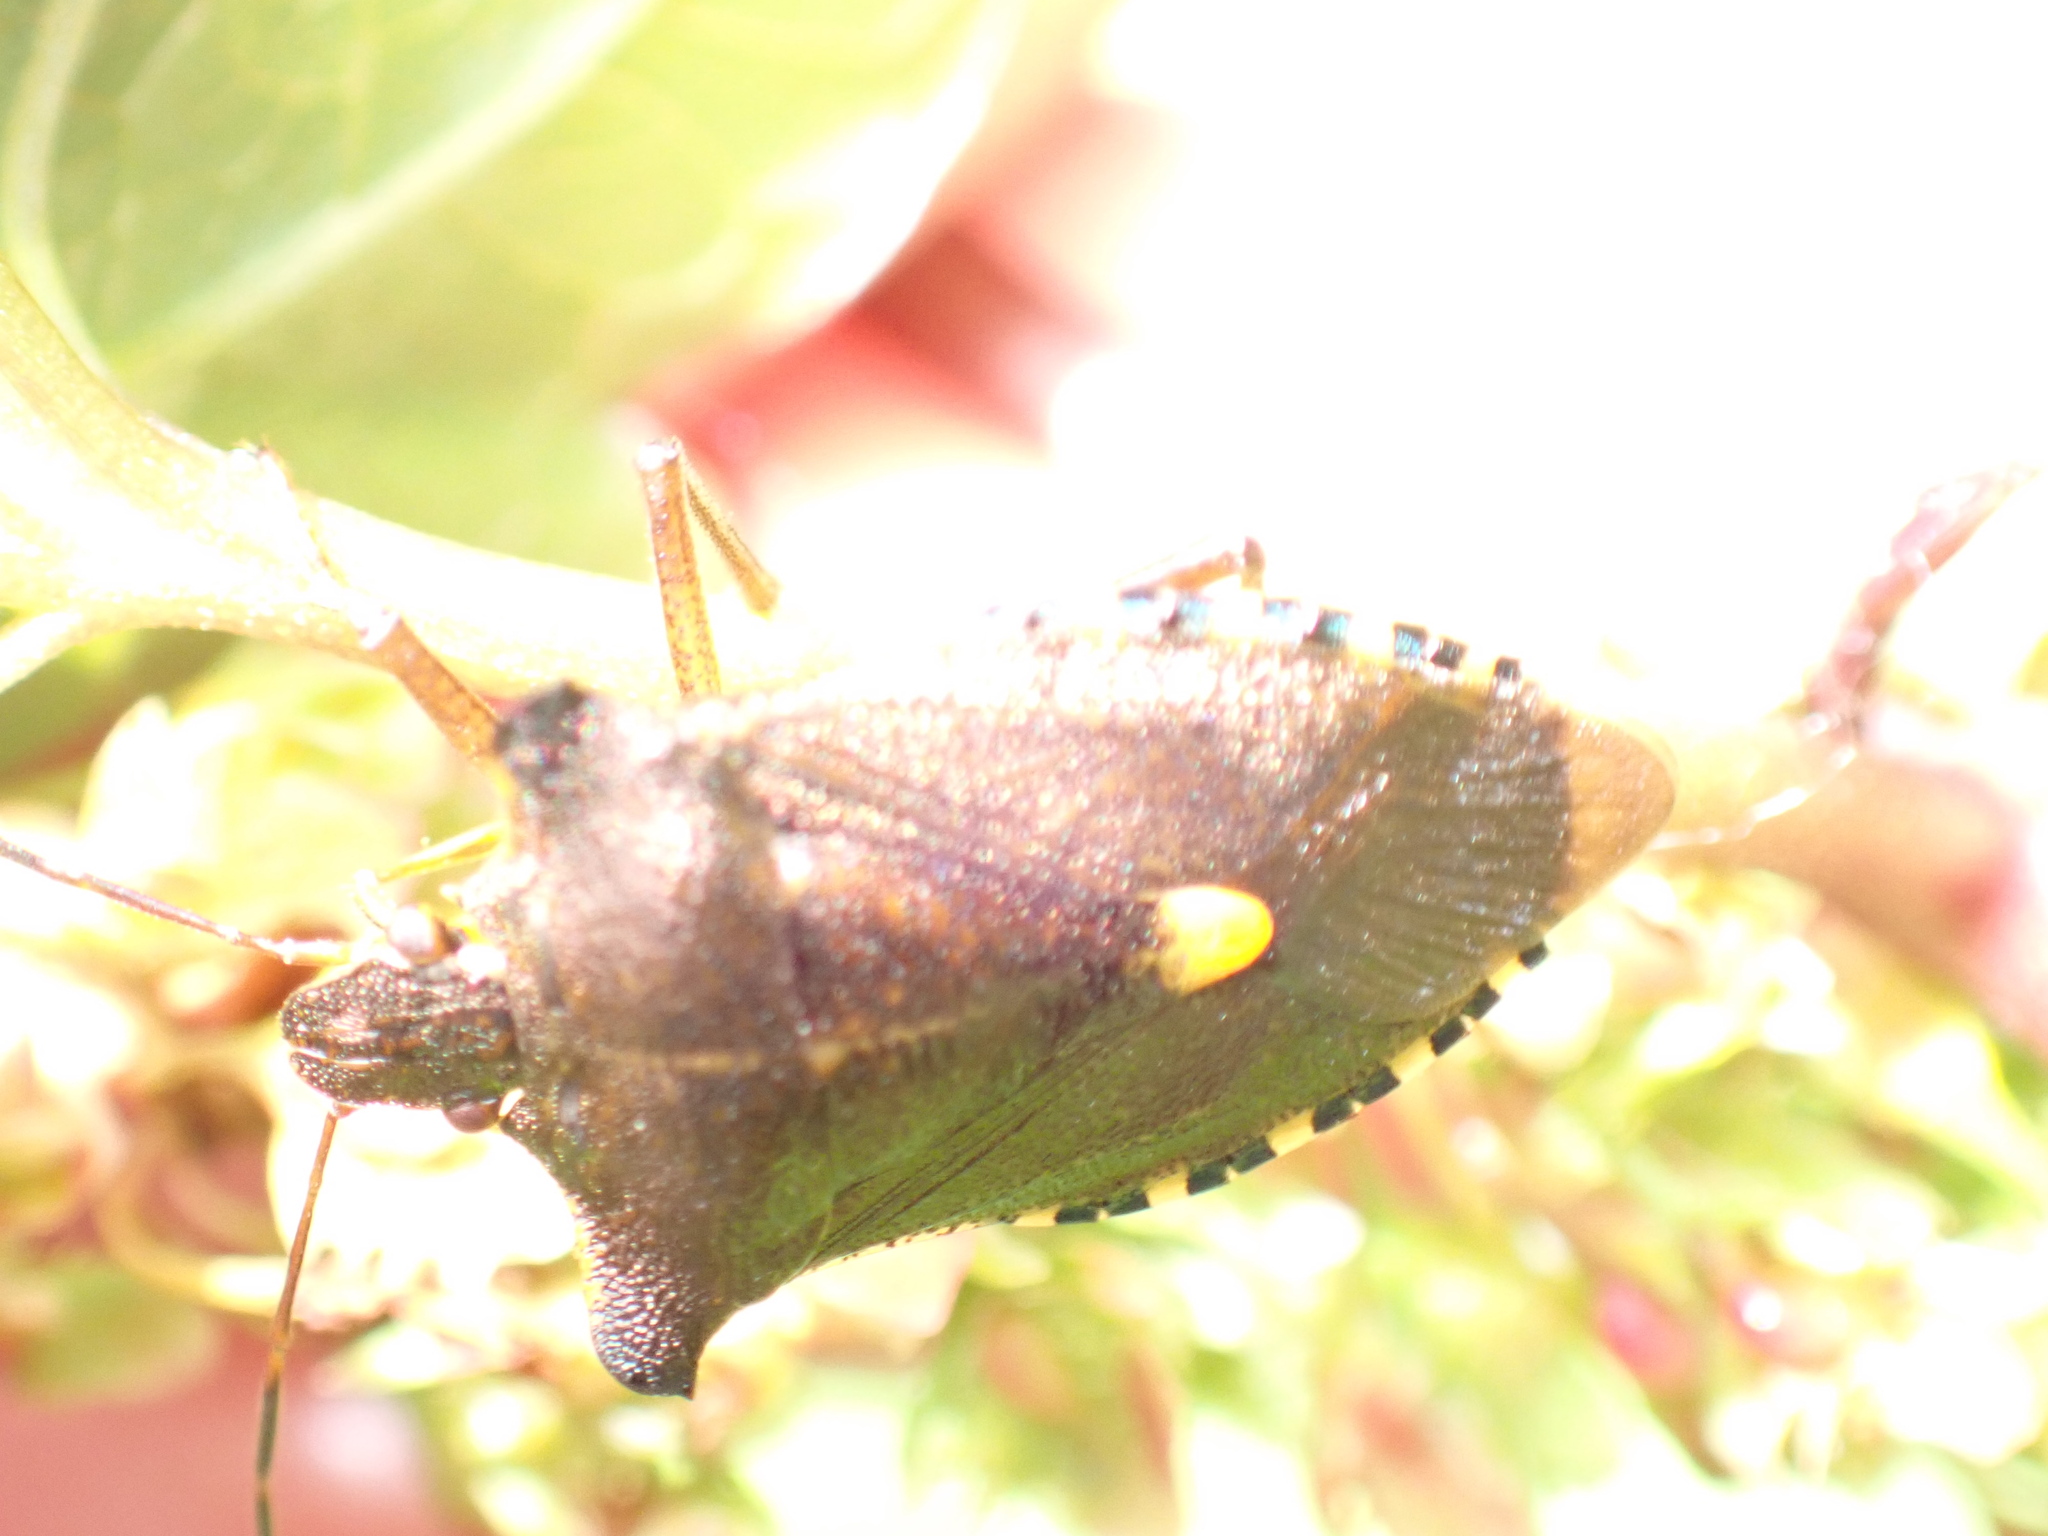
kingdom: Animalia
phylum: Arthropoda
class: Insecta
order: Hemiptera
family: Pentatomidae
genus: Pentatoma
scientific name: Pentatoma rufipes
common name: Forest bug
